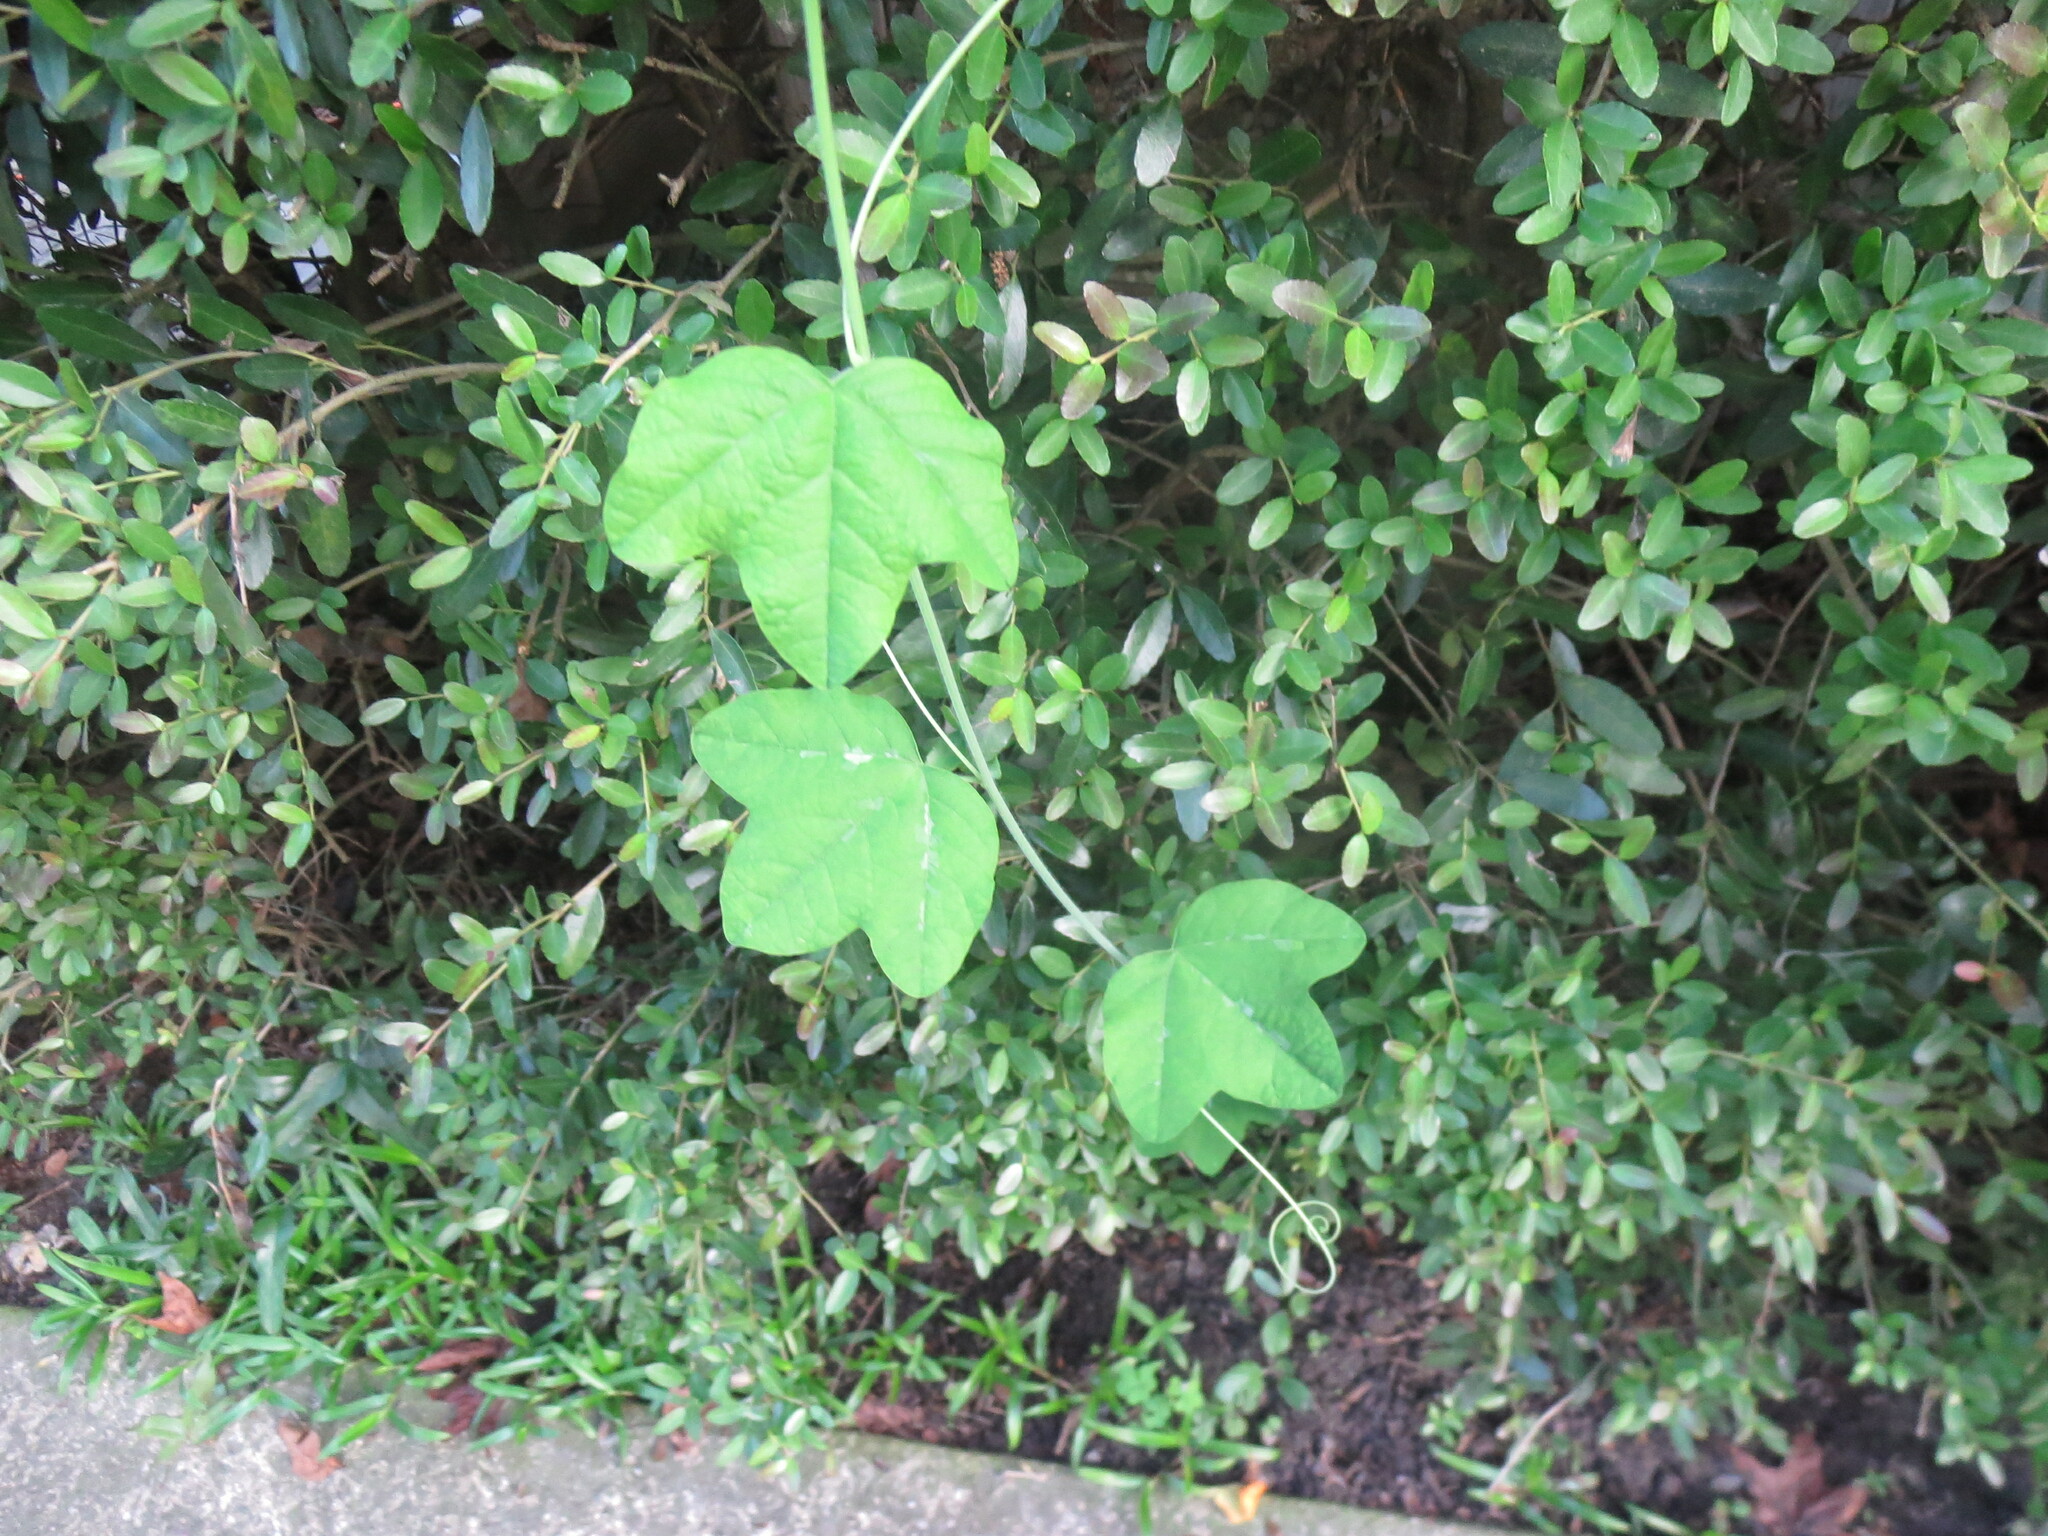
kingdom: Plantae
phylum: Tracheophyta
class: Magnoliopsida
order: Malpighiales
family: Passifloraceae
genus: Passiflora
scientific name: Passiflora lutea
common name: Yellow passionflower
